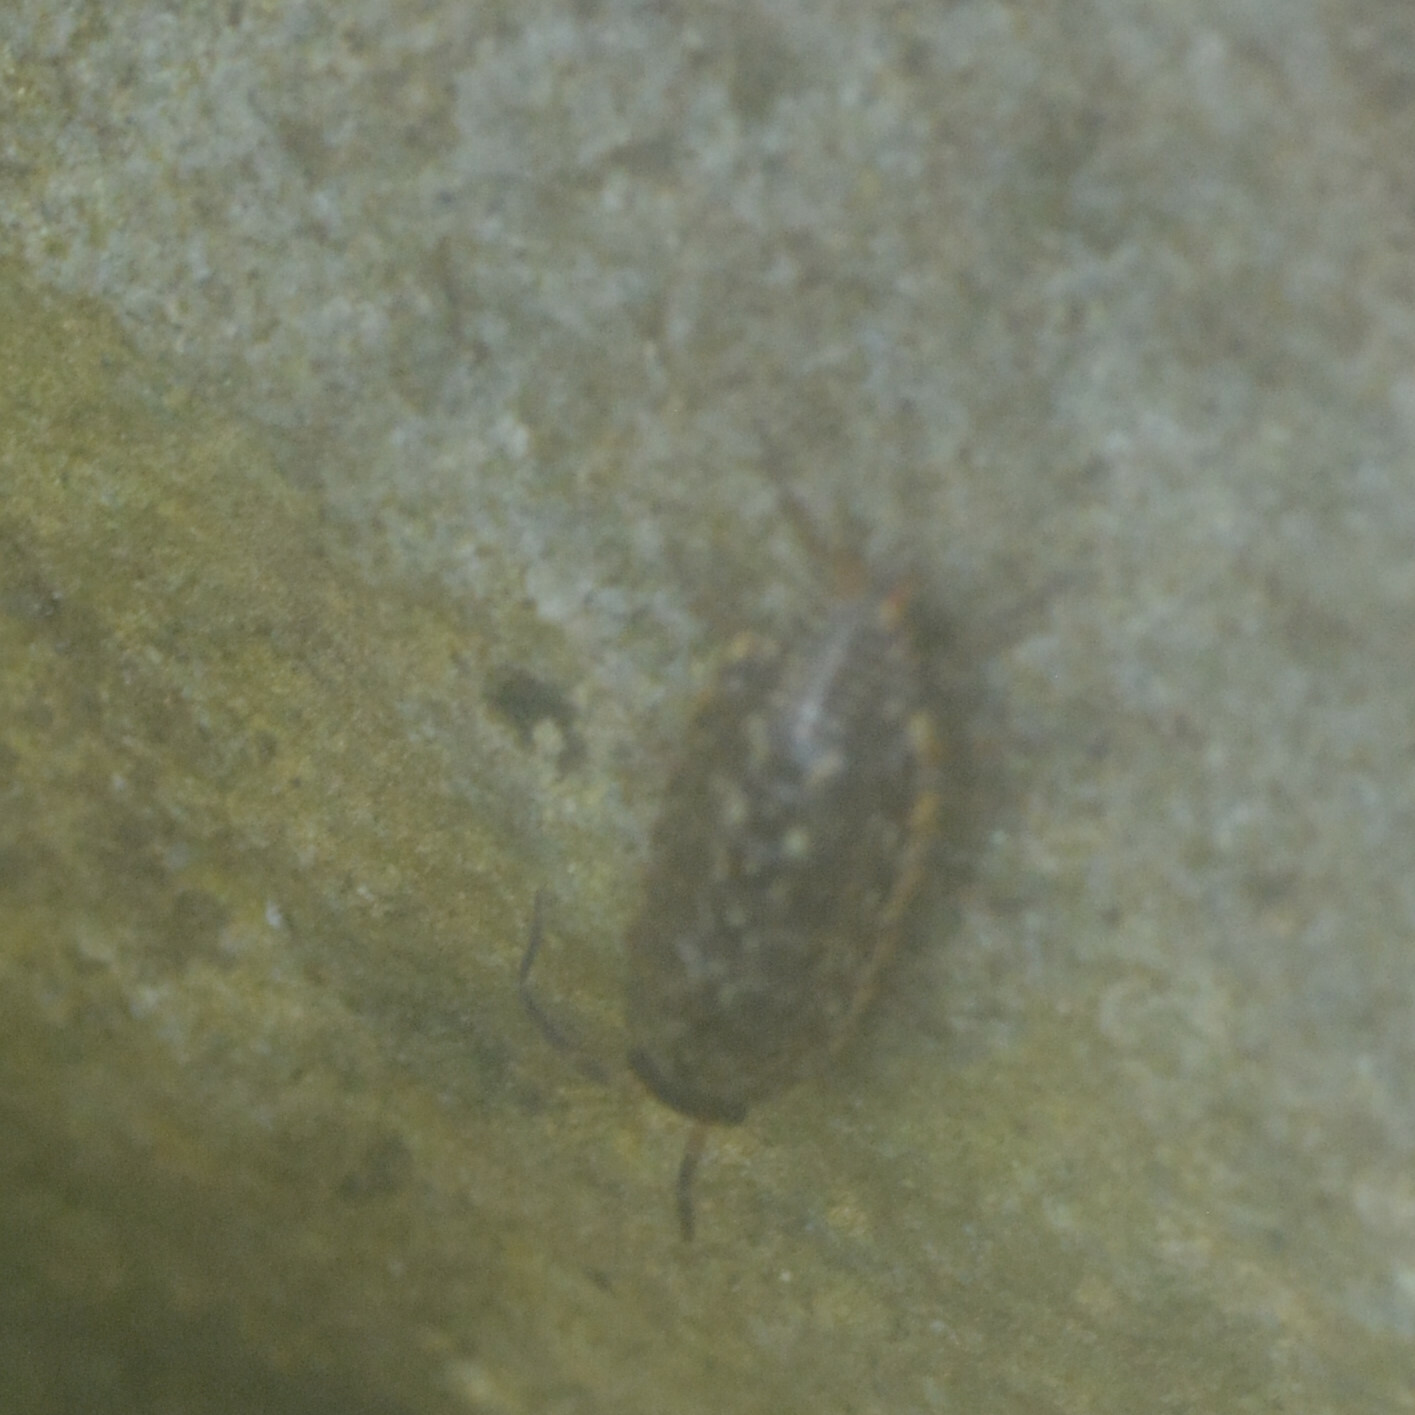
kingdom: Animalia
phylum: Arthropoda
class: Malacostraca
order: Isopoda
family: Philosciidae
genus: Philoscia
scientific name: Philoscia muscorum
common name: Common striped woodlouse
